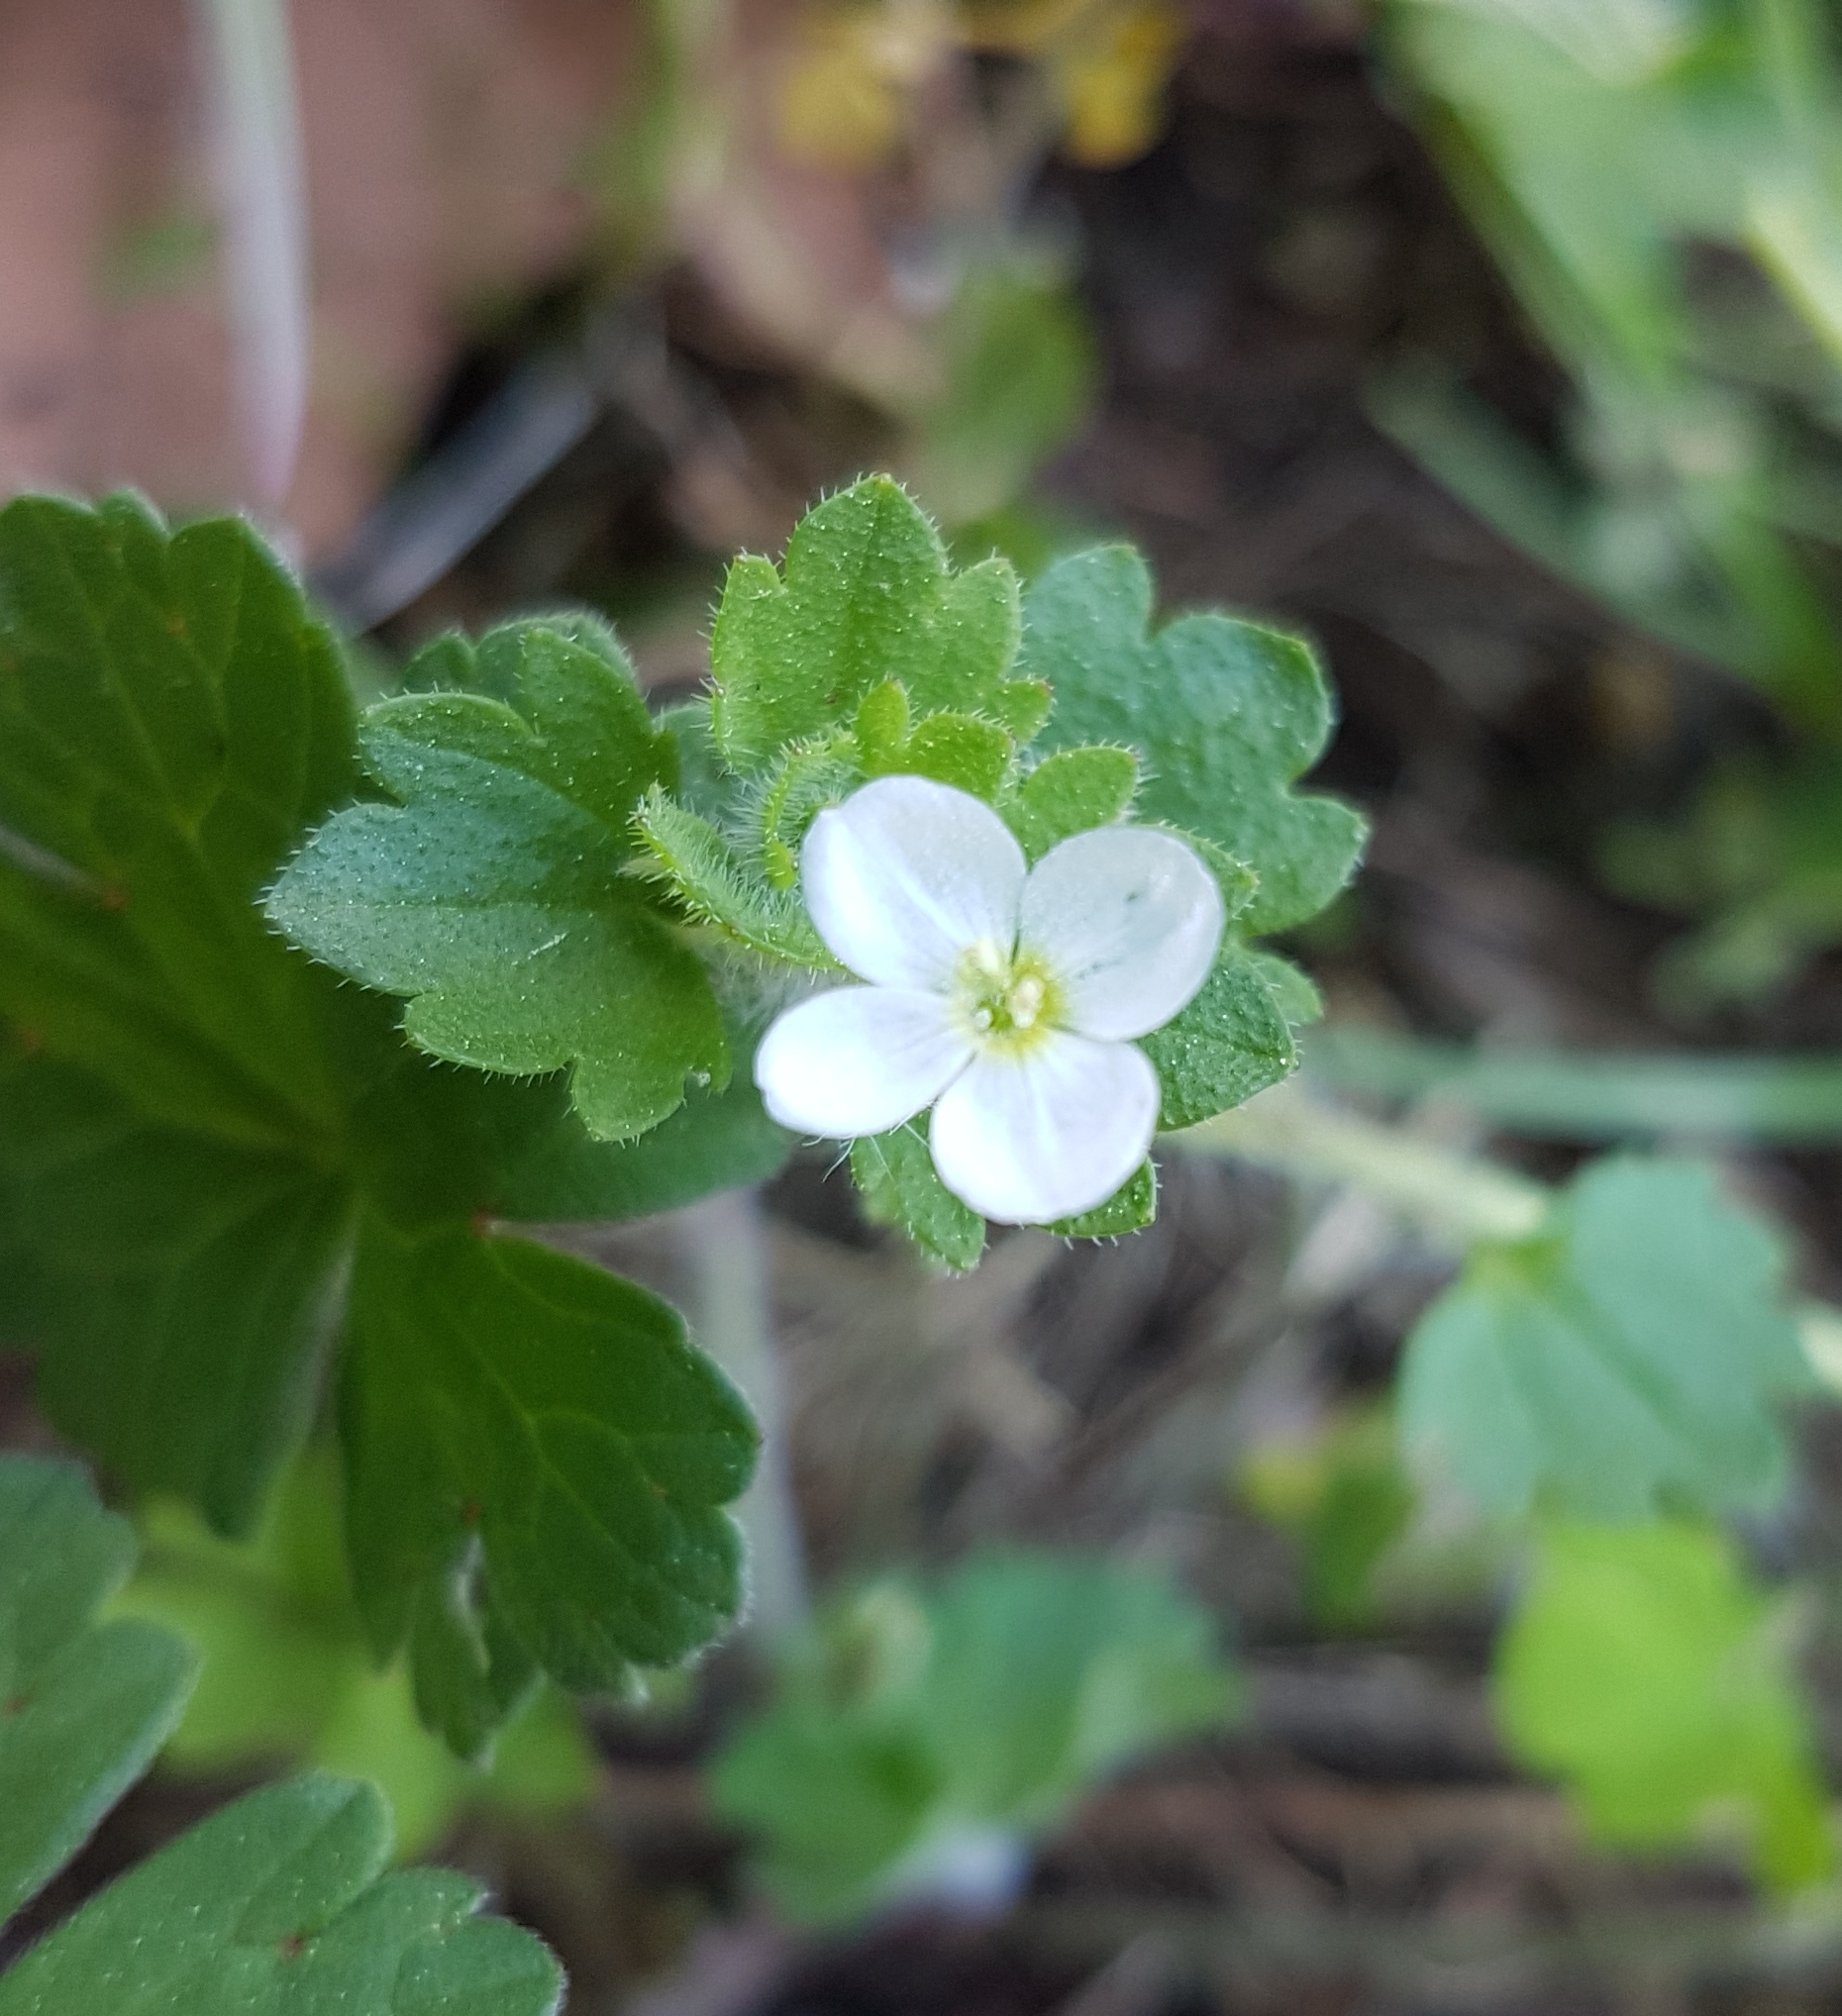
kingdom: Plantae
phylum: Tracheophyta
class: Magnoliopsida
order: Lamiales
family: Plantaginaceae
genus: Veronica
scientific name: Veronica cymbalaria
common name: Pale speedwell
